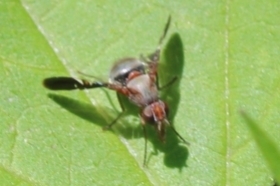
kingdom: Animalia
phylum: Arthropoda
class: Insecta
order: Diptera
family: Ulidiidae
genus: Delphinia
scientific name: Delphinia picta
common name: Common picture-winged fly
